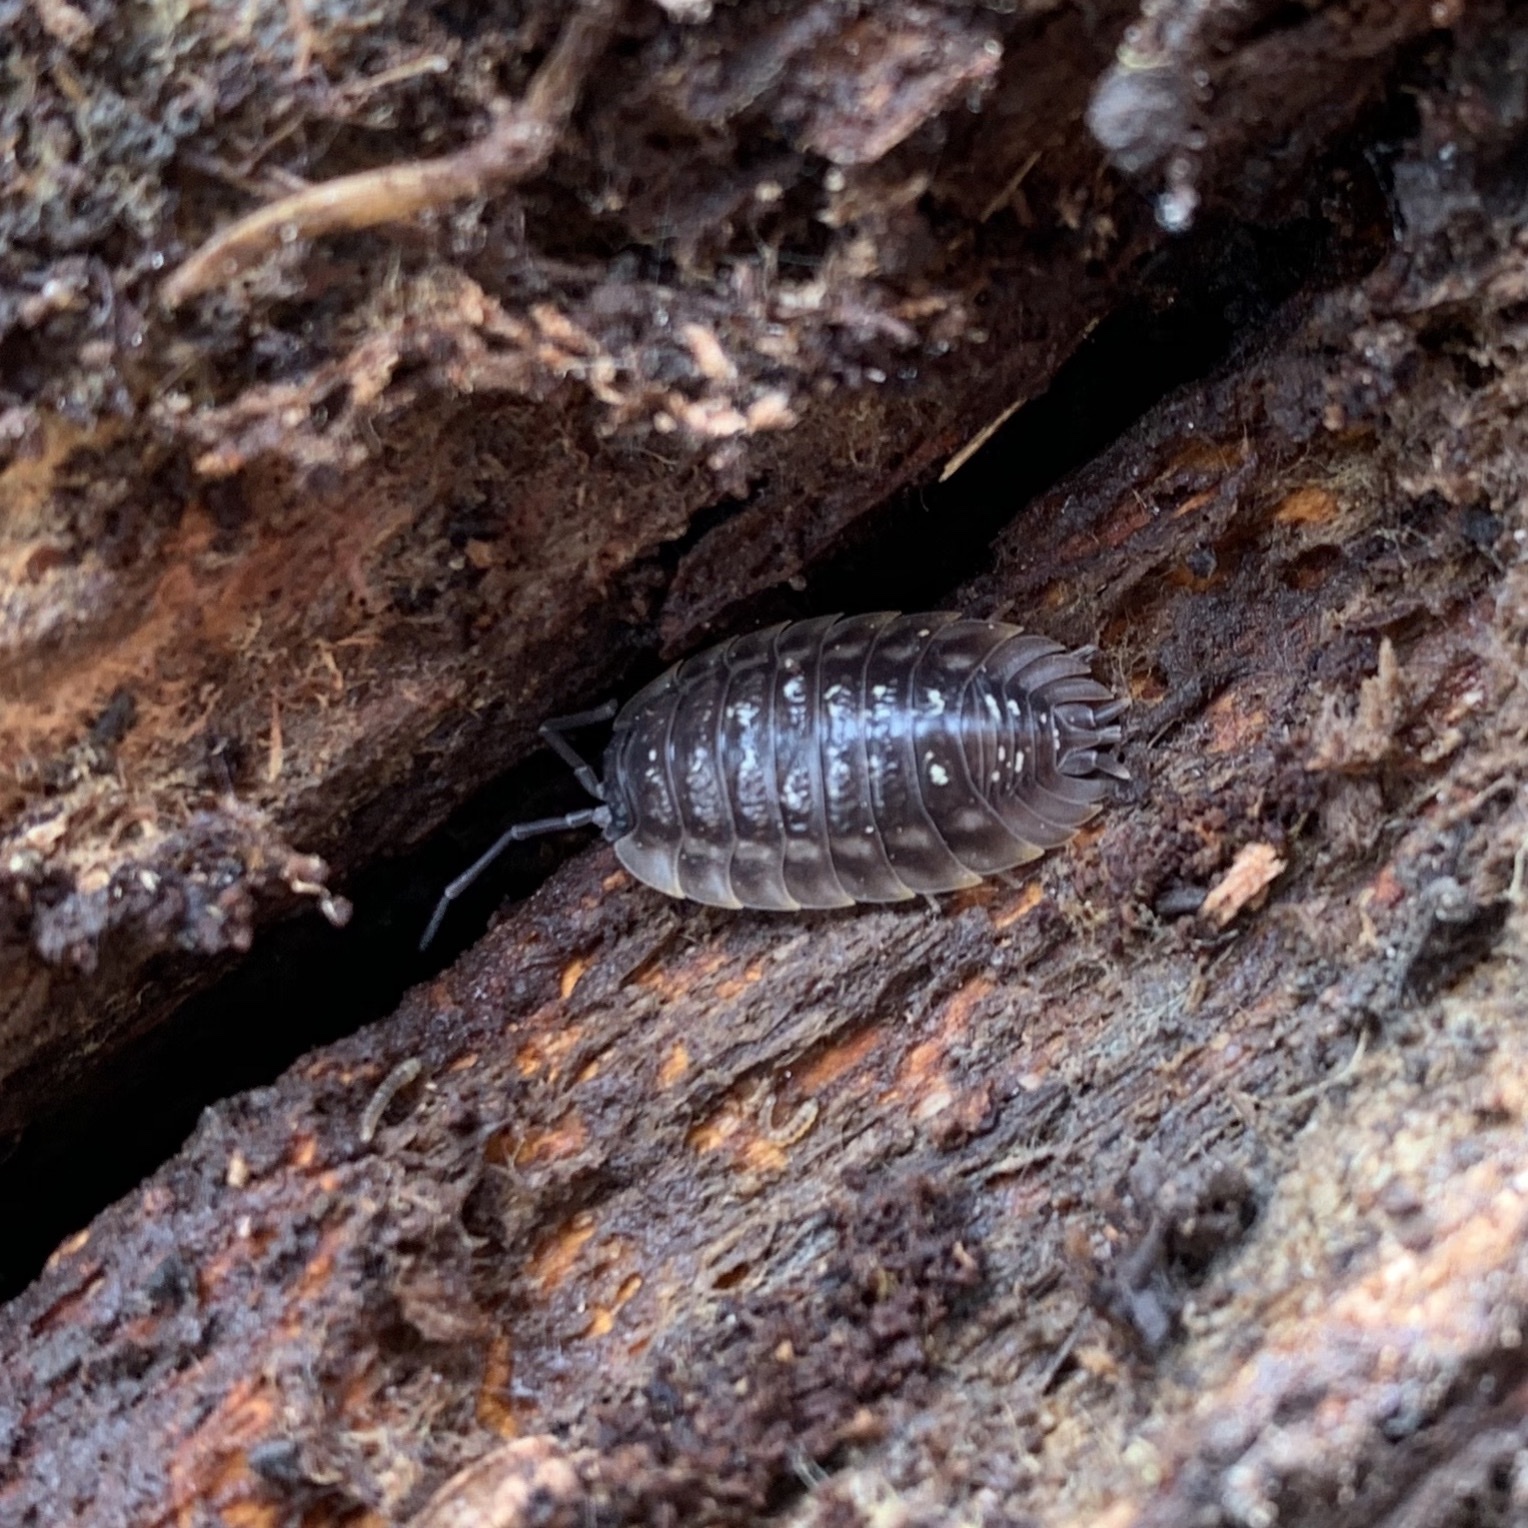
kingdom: Animalia
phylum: Arthropoda
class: Malacostraca
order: Isopoda
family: Oniscidae
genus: Oniscus
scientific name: Oniscus asellus
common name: Common shiny woodlouse
